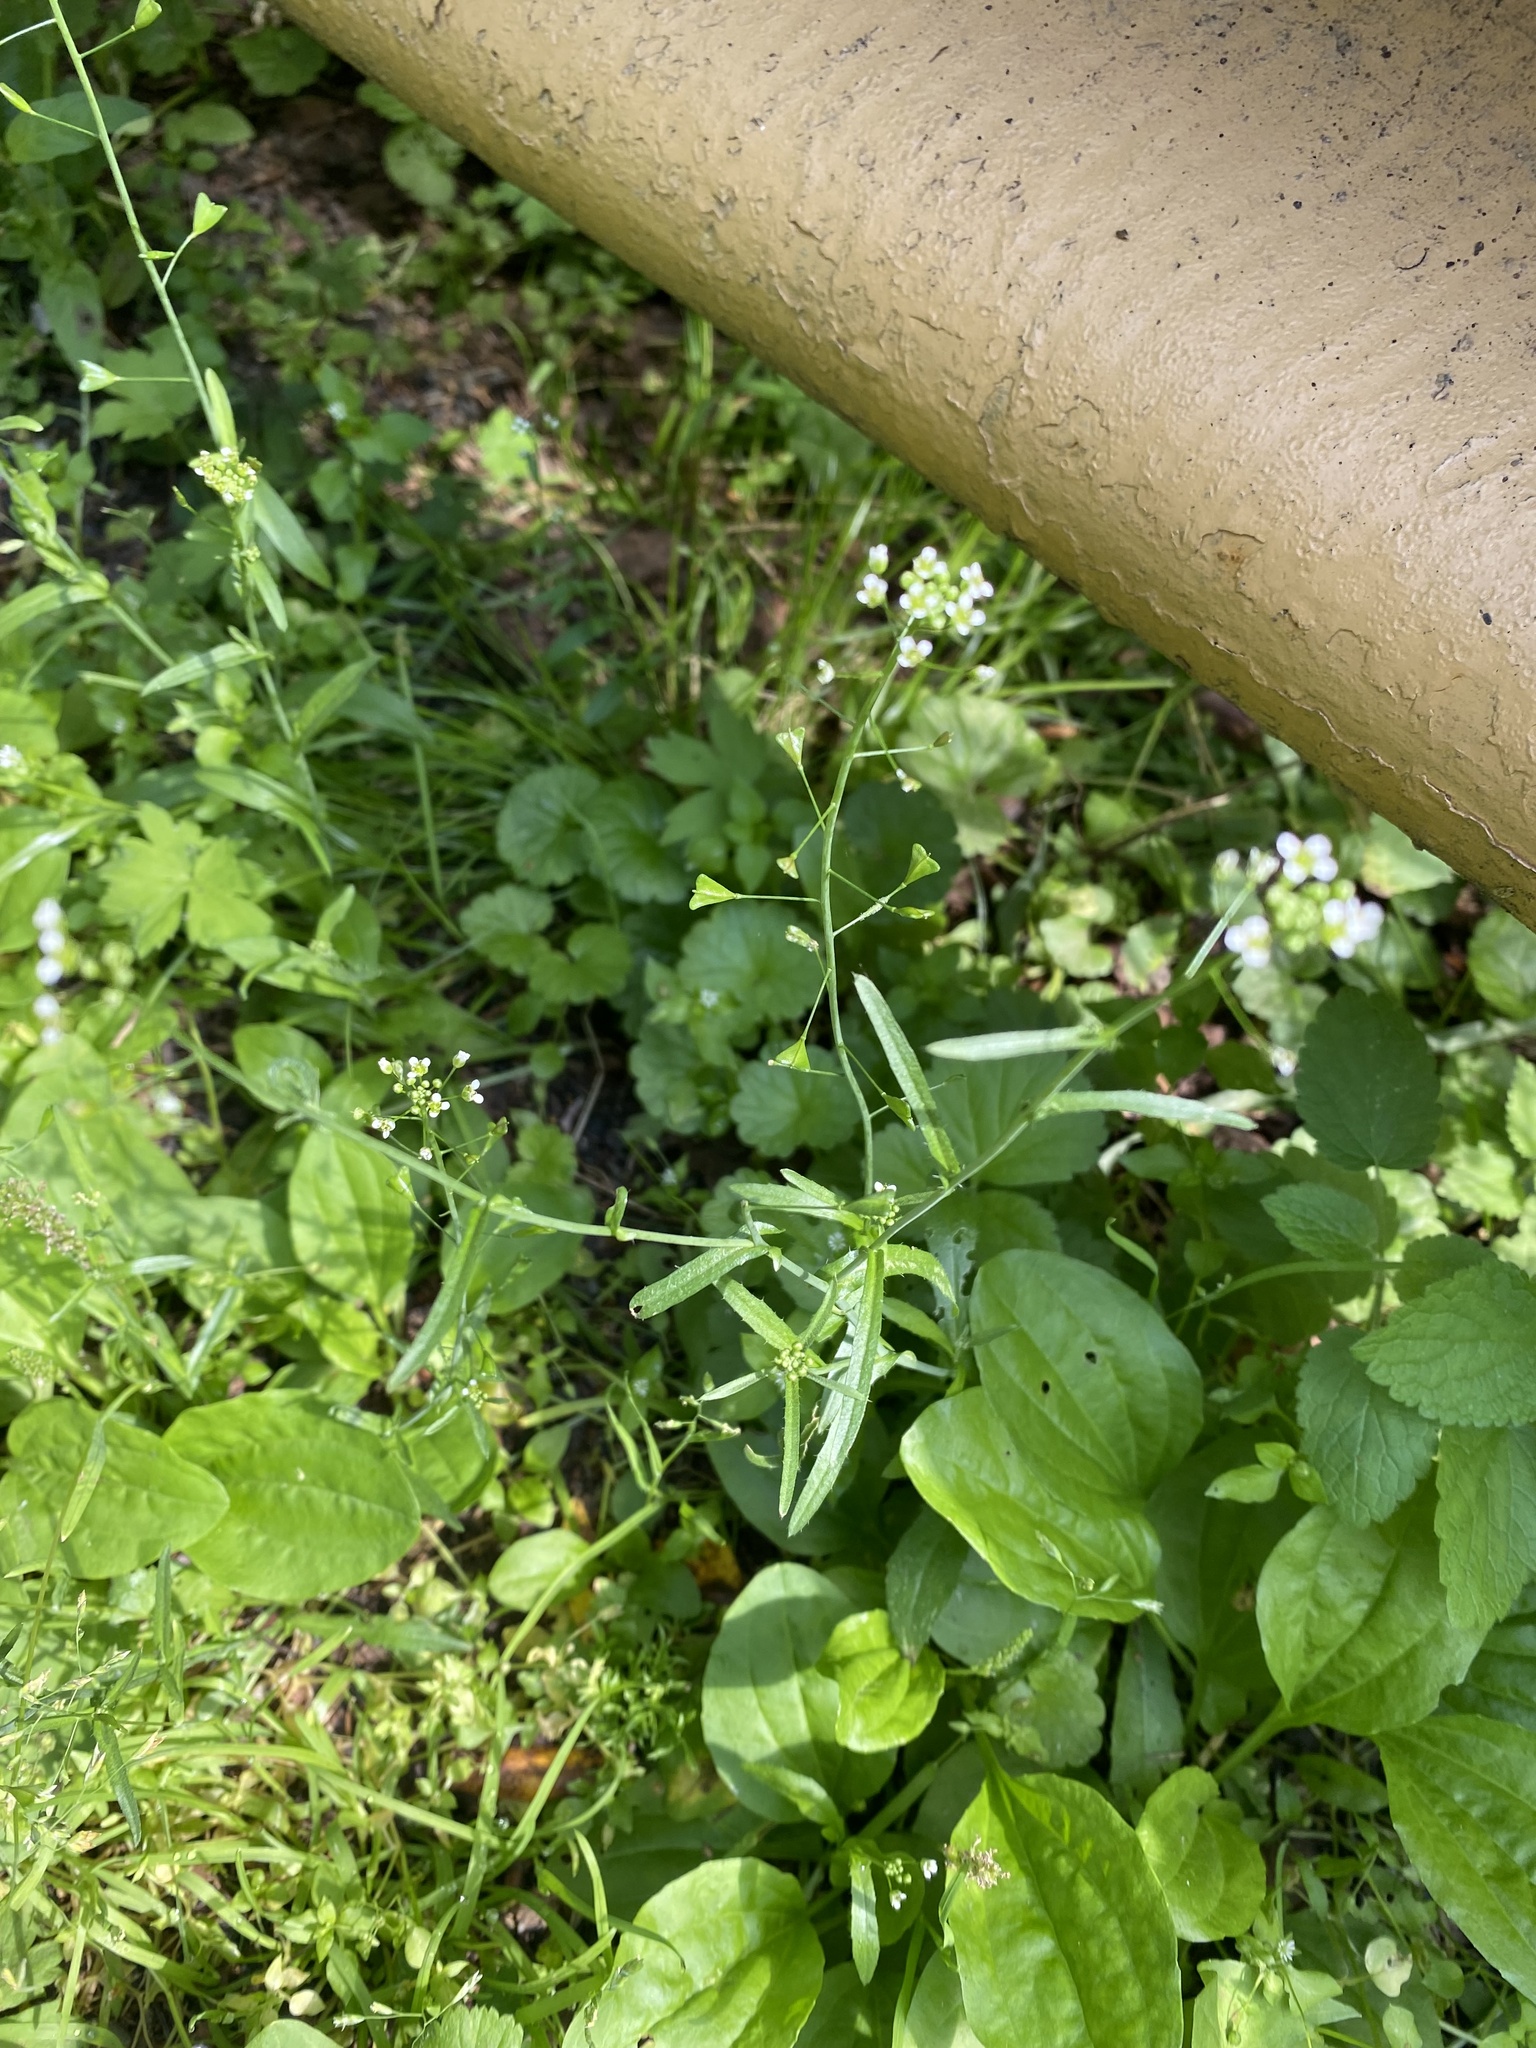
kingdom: Plantae
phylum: Tracheophyta
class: Magnoliopsida
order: Brassicales
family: Brassicaceae
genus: Capsella
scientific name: Capsella bursa-pastoris
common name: Shepherd's purse
